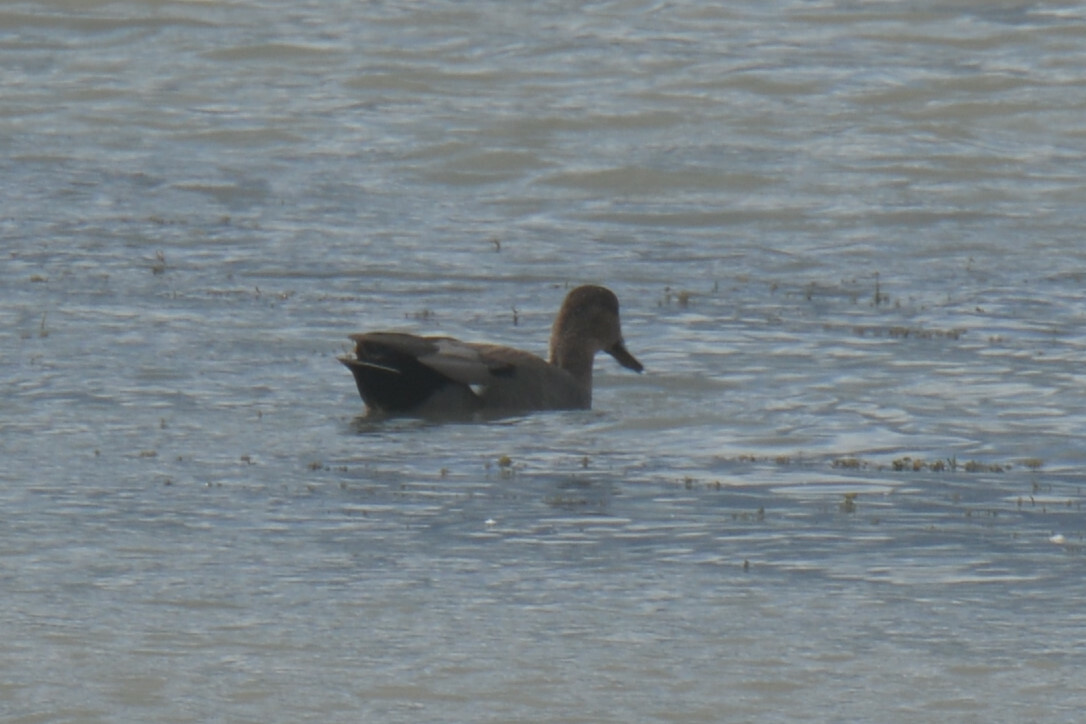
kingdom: Animalia
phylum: Chordata
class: Aves
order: Anseriformes
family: Anatidae
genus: Mareca
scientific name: Mareca strepera
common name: Gadwall
